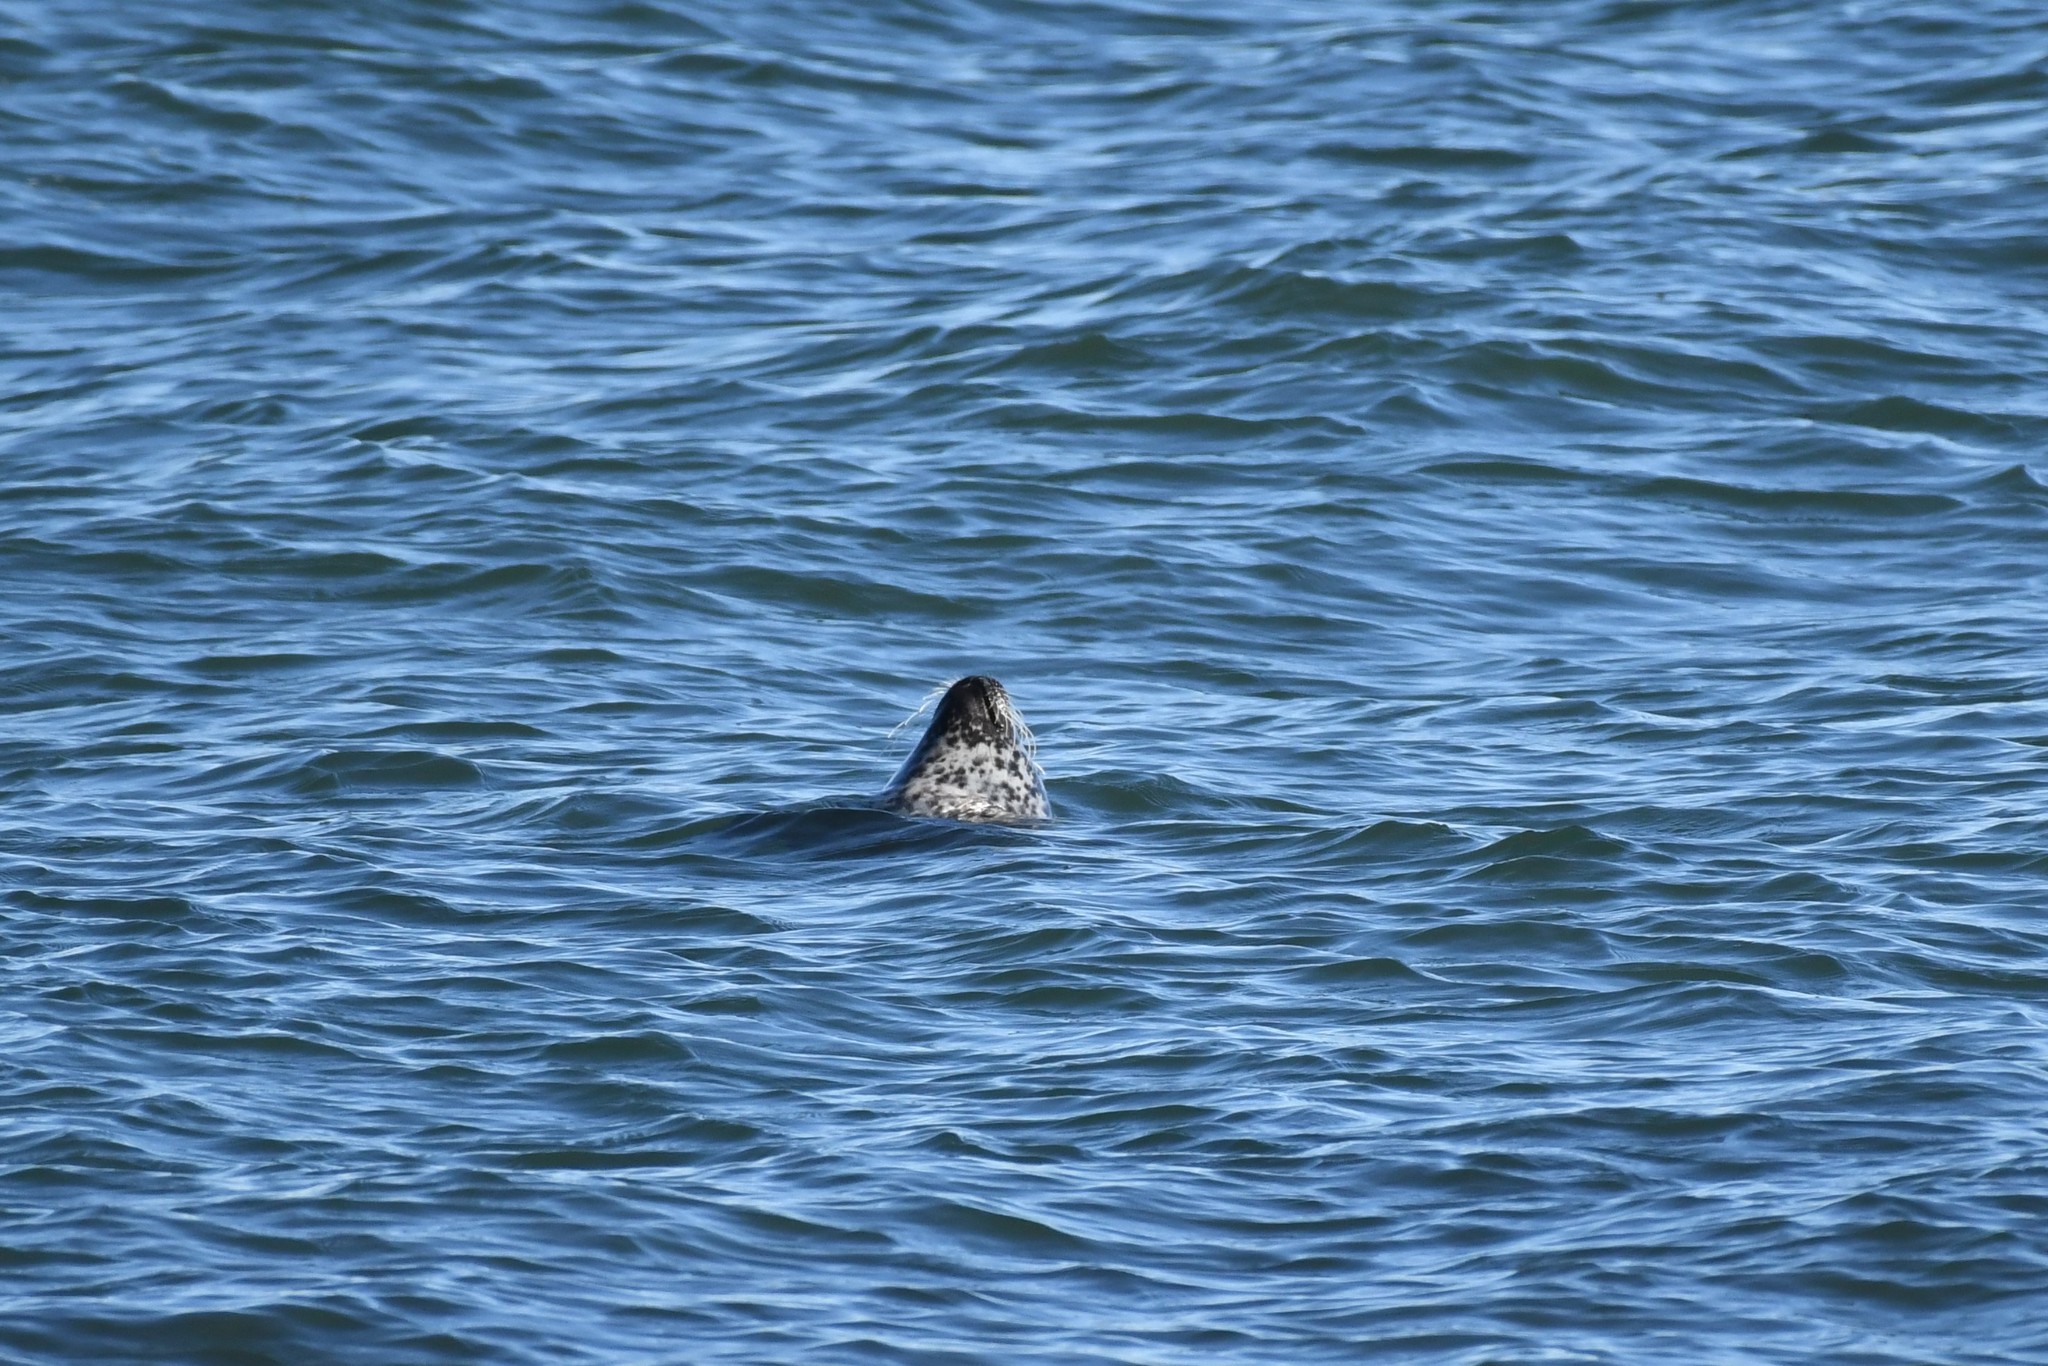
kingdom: Animalia
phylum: Chordata
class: Mammalia
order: Carnivora
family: Phocidae
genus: Phoca
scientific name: Phoca vitulina
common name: Harbor seal
